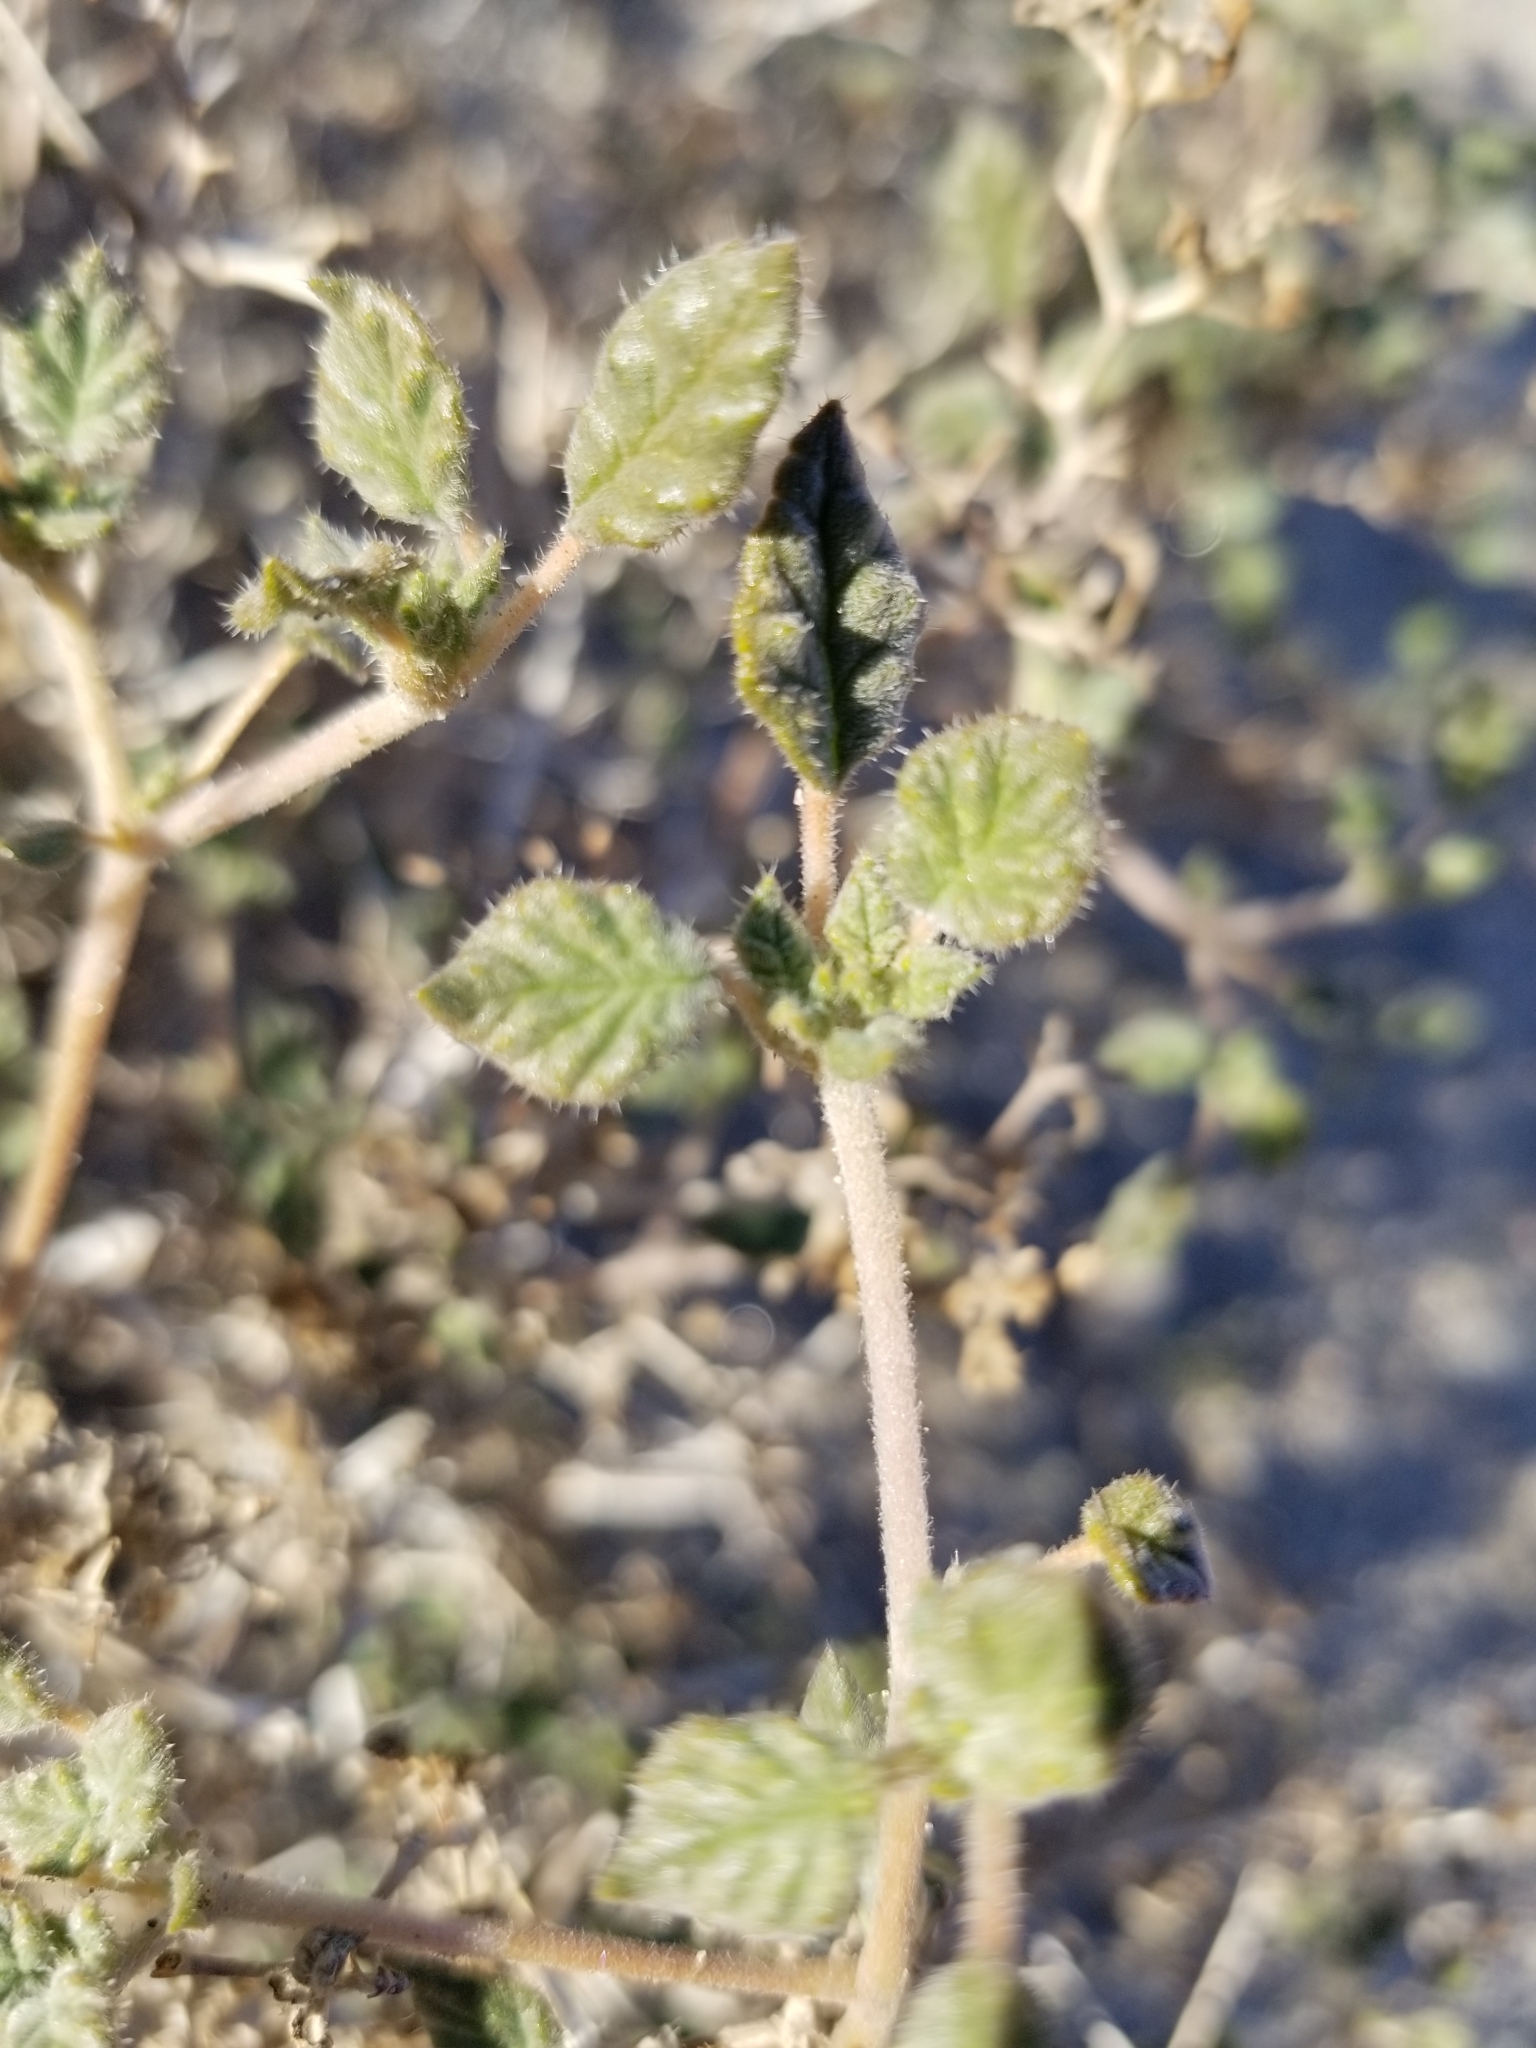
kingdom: Plantae
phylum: Tracheophyta
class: Magnoliopsida
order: Boraginales
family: Ehretiaceae
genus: Tiquilia
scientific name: Tiquilia palmeri
